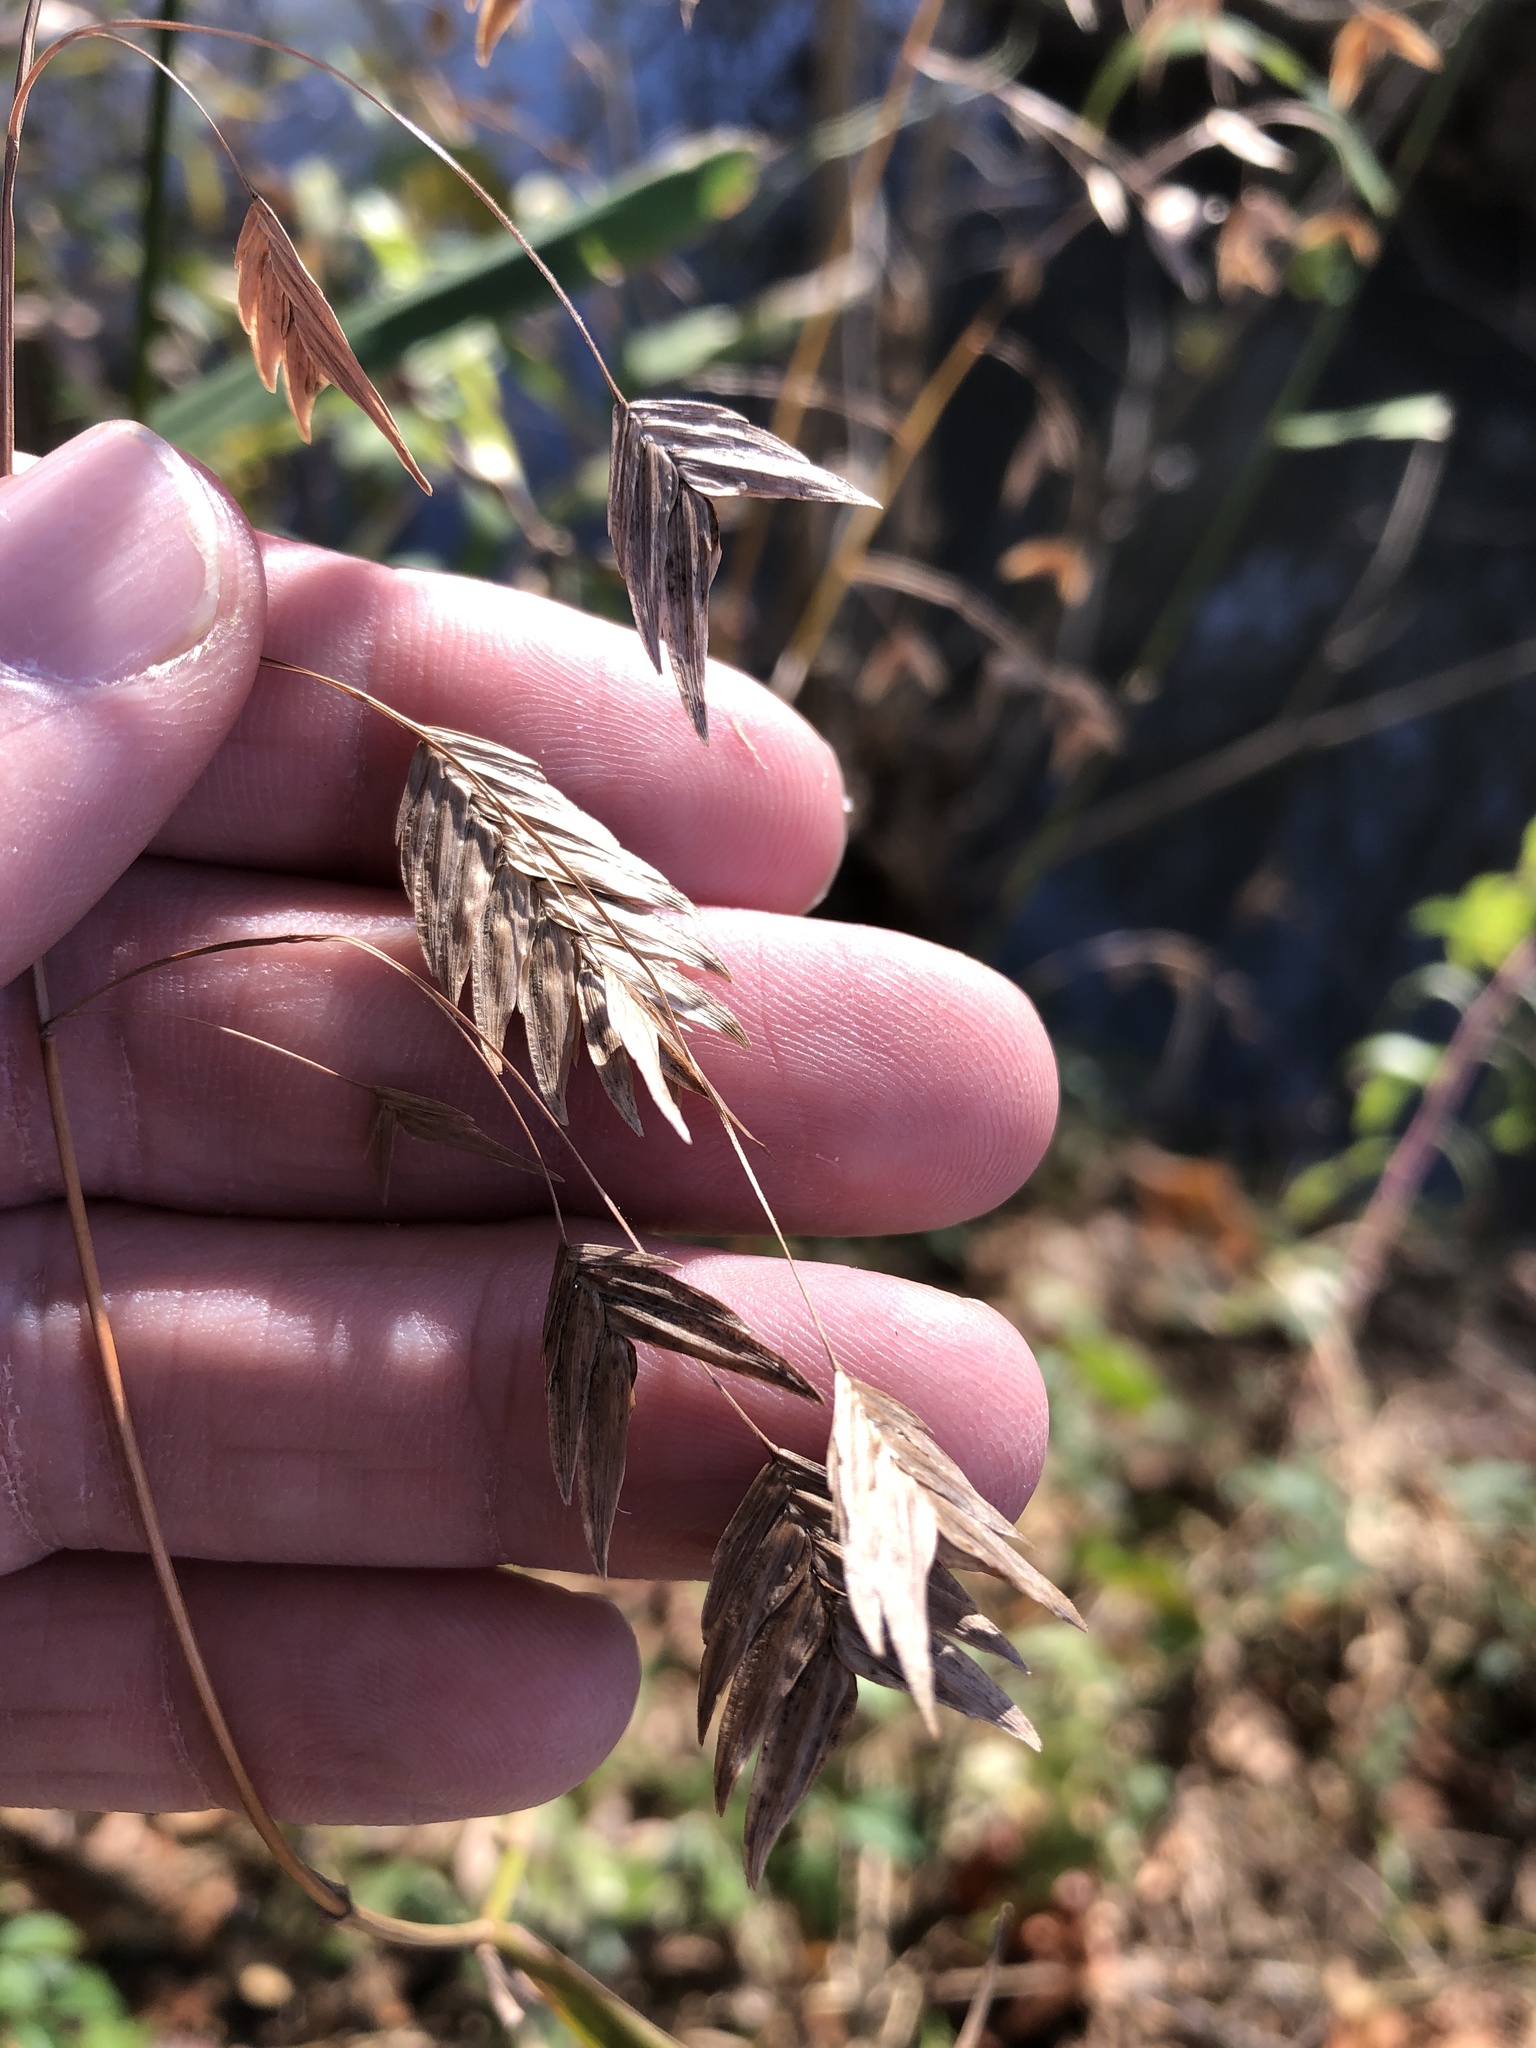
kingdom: Plantae
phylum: Tracheophyta
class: Liliopsida
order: Poales
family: Poaceae
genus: Chasmanthium
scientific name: Chasmanthium latifolium
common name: Broad-leaved chasmanthium
